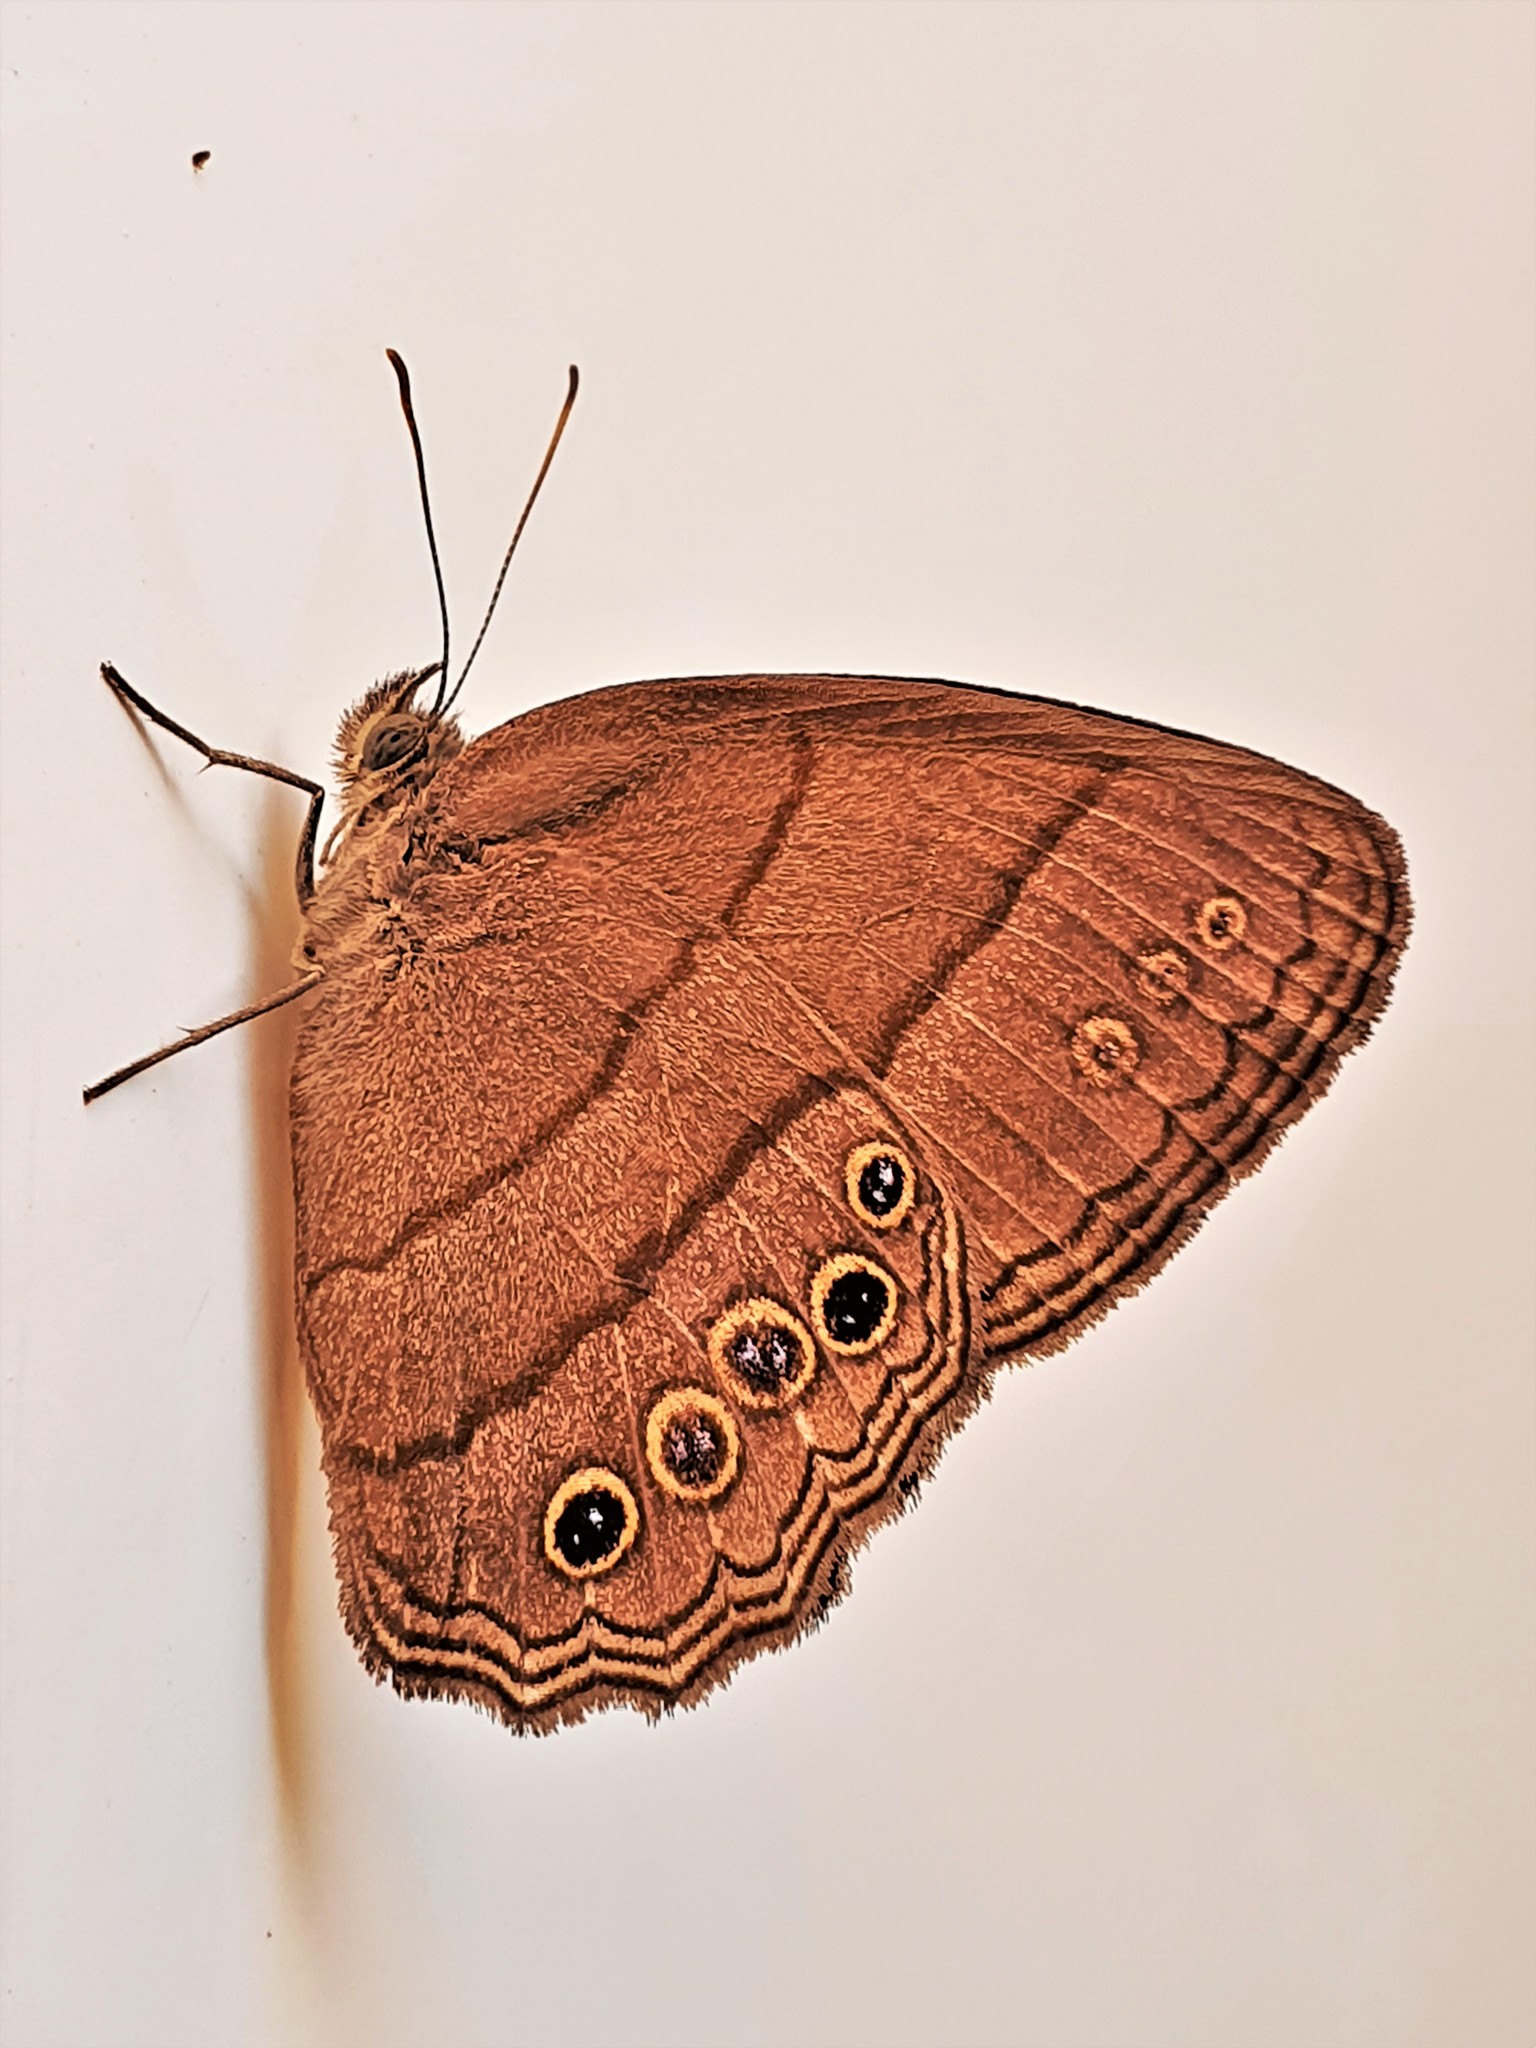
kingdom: Animalia
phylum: Arthropoda
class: Insecta
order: Lepidoptera
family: Nymphalidae
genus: Emeryus
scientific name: Emeryus
